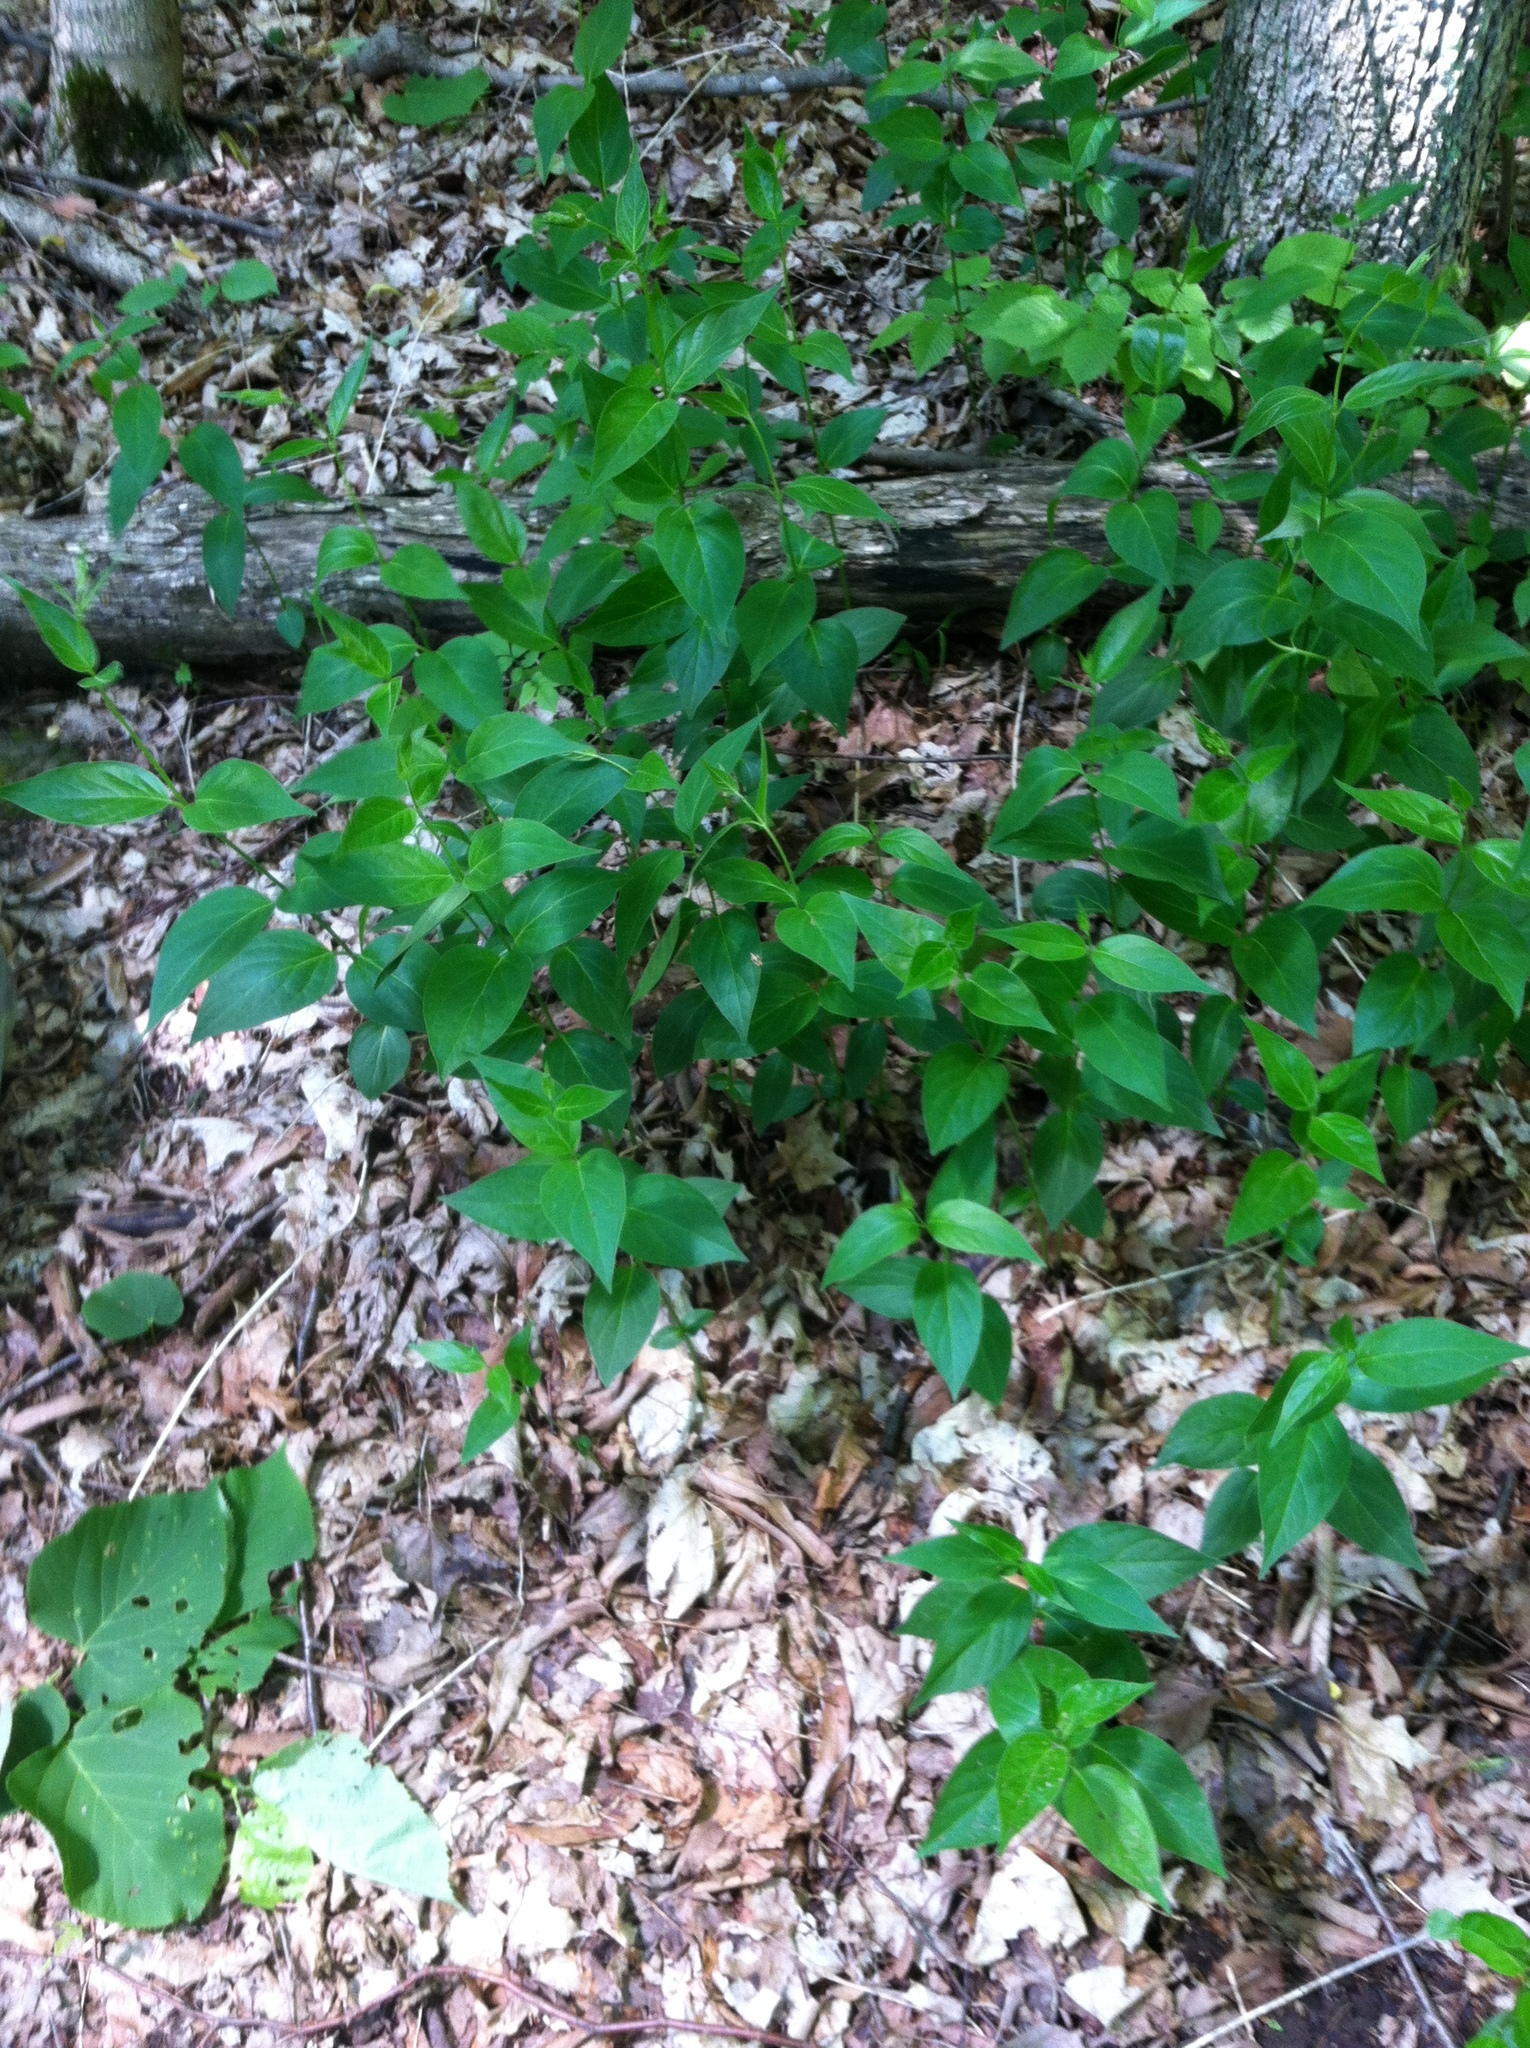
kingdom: Plantae
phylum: Tracheophyta
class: Magnoliopsida
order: Gentianales
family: Apocynaceae
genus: Vincetoxicum
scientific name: Vincetoxicum rossicum
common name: Dog-strangling vine
